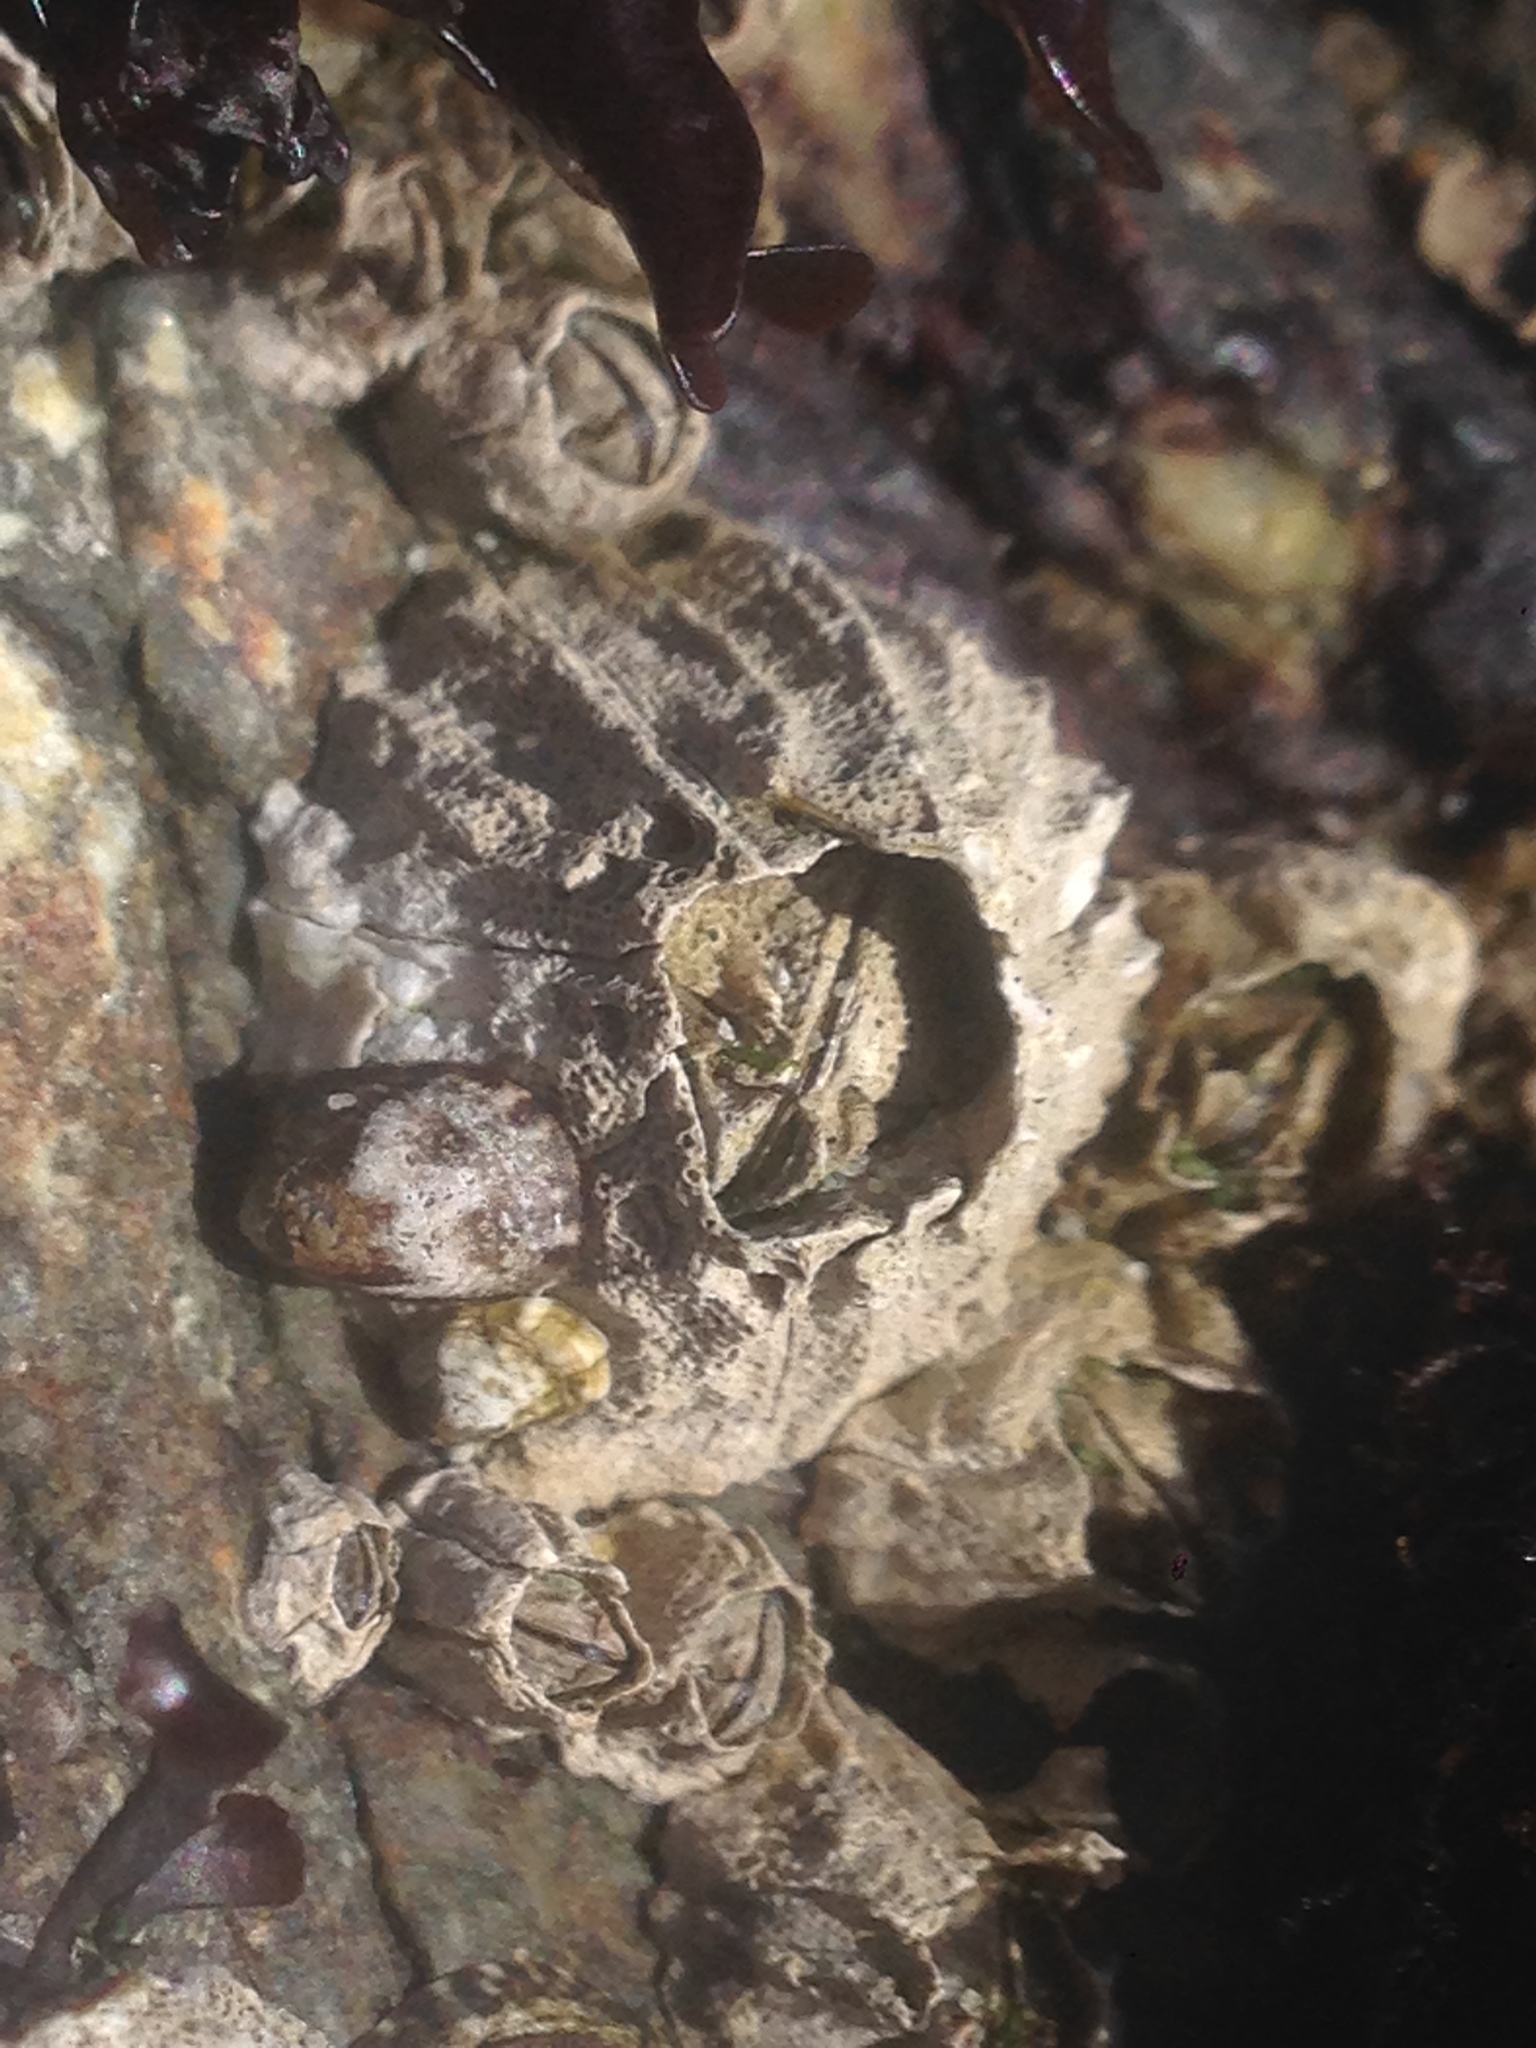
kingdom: Animalia
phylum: Arthropoda
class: Maxillopoda
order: Sessilia
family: Balanidae
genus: Balanus
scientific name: Balanus glandula
